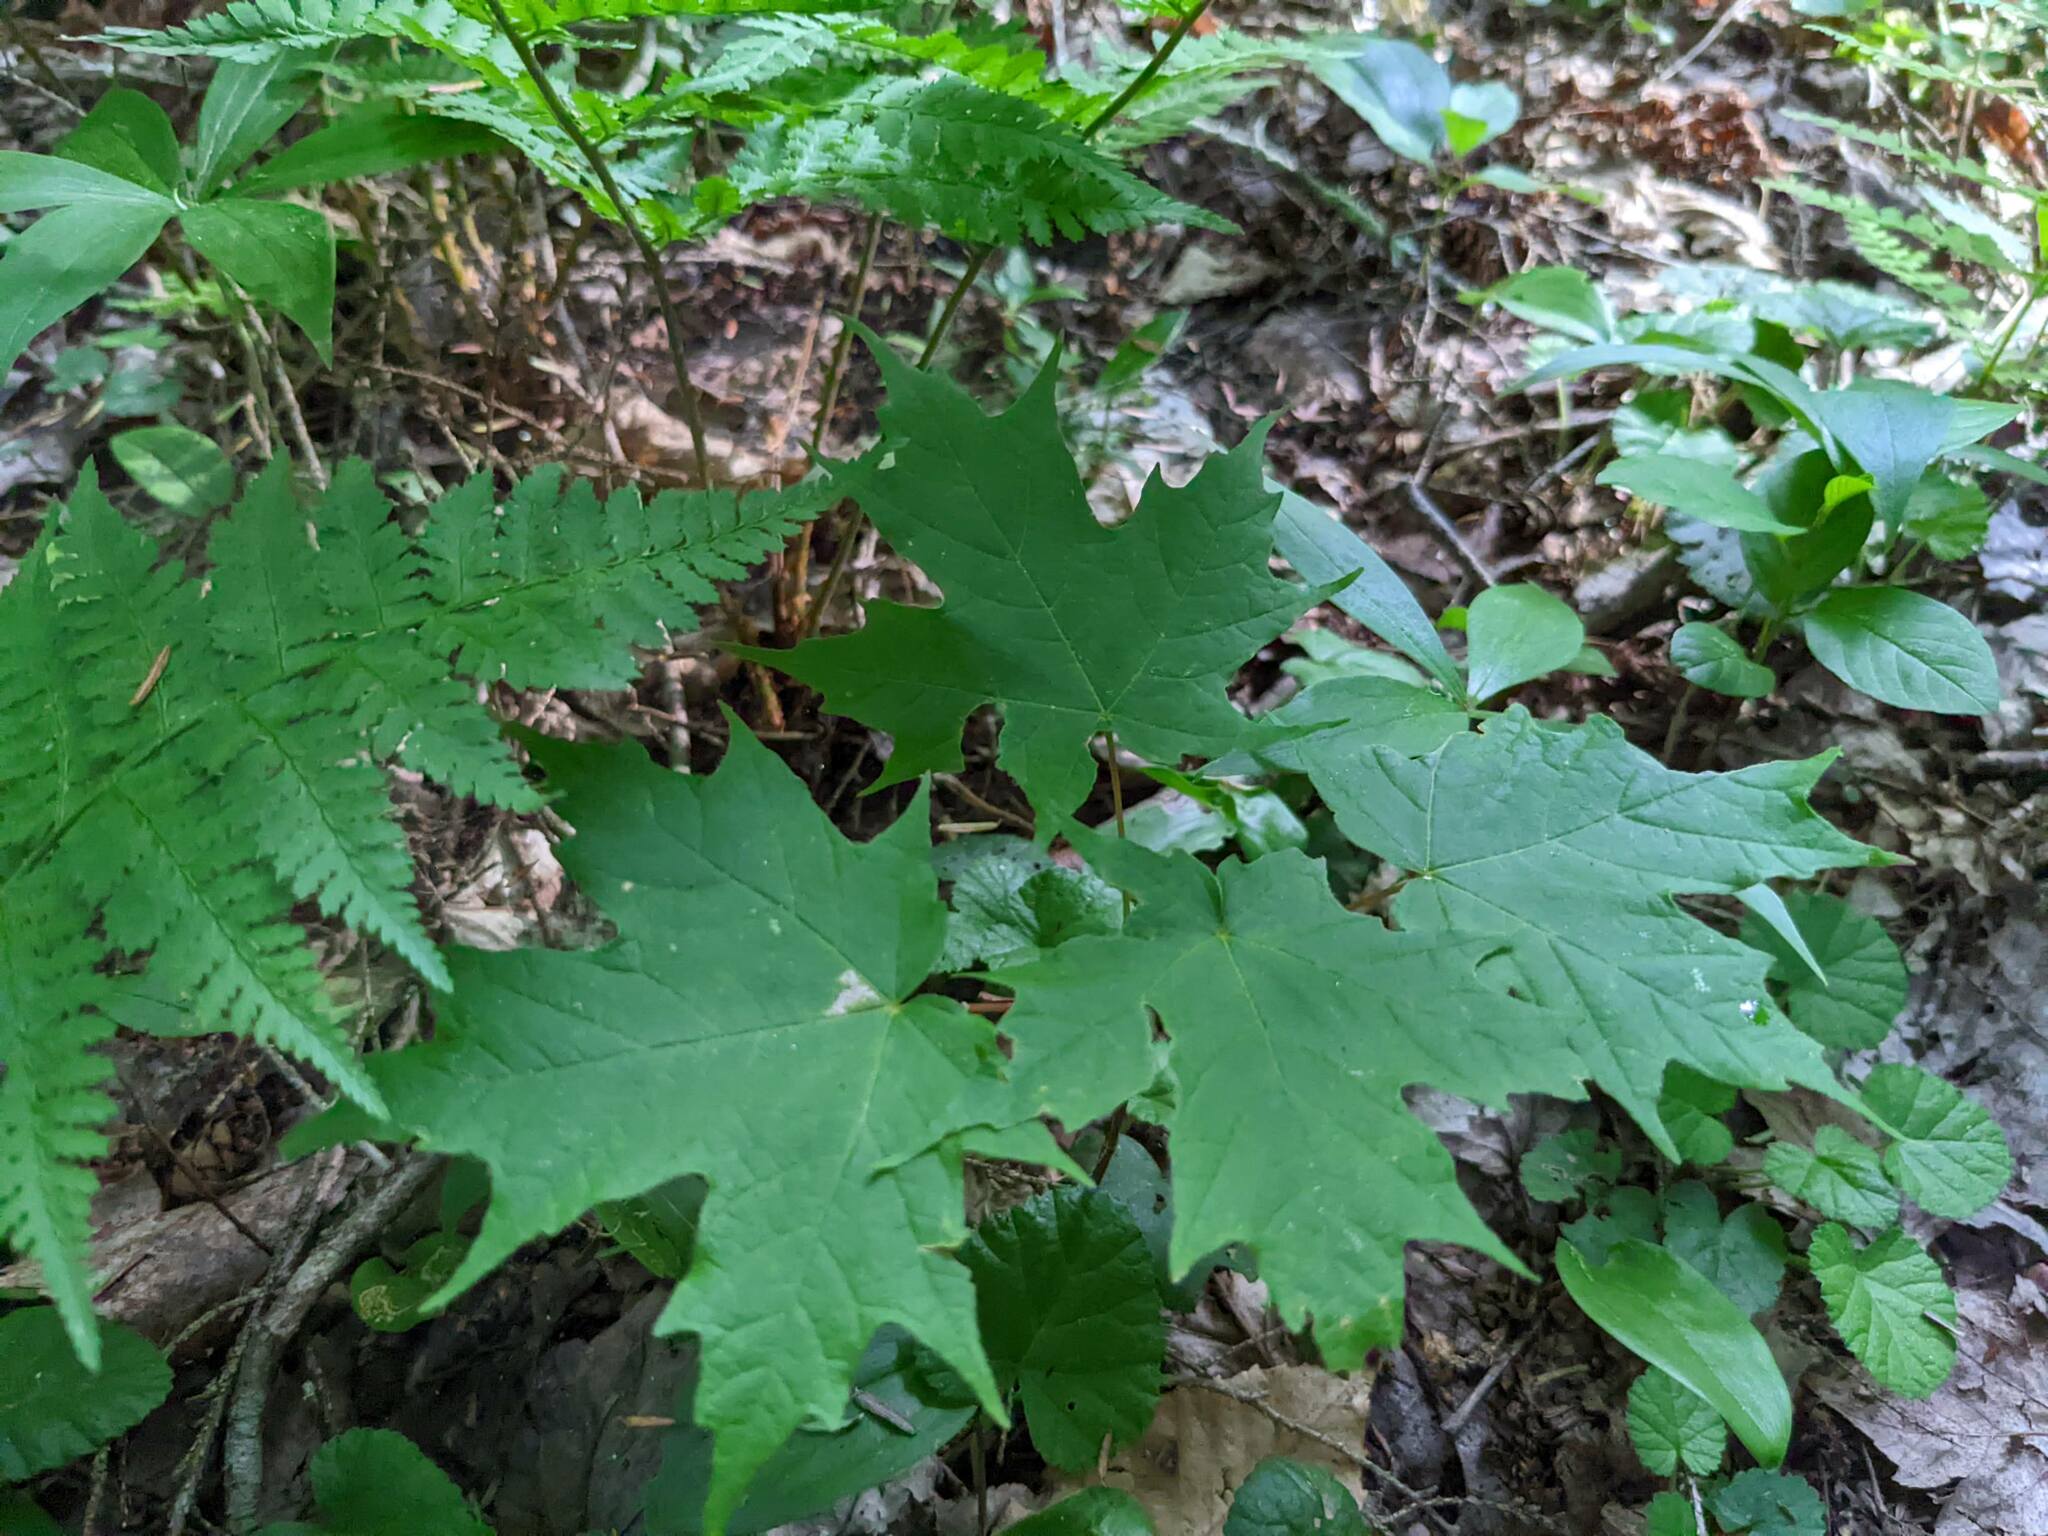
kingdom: Plantae
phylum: Tracheophyta
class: Magnoliopsida
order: Sapindales
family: Sapindaceae
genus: Acer
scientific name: Acer saccharum
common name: Sugar maple
